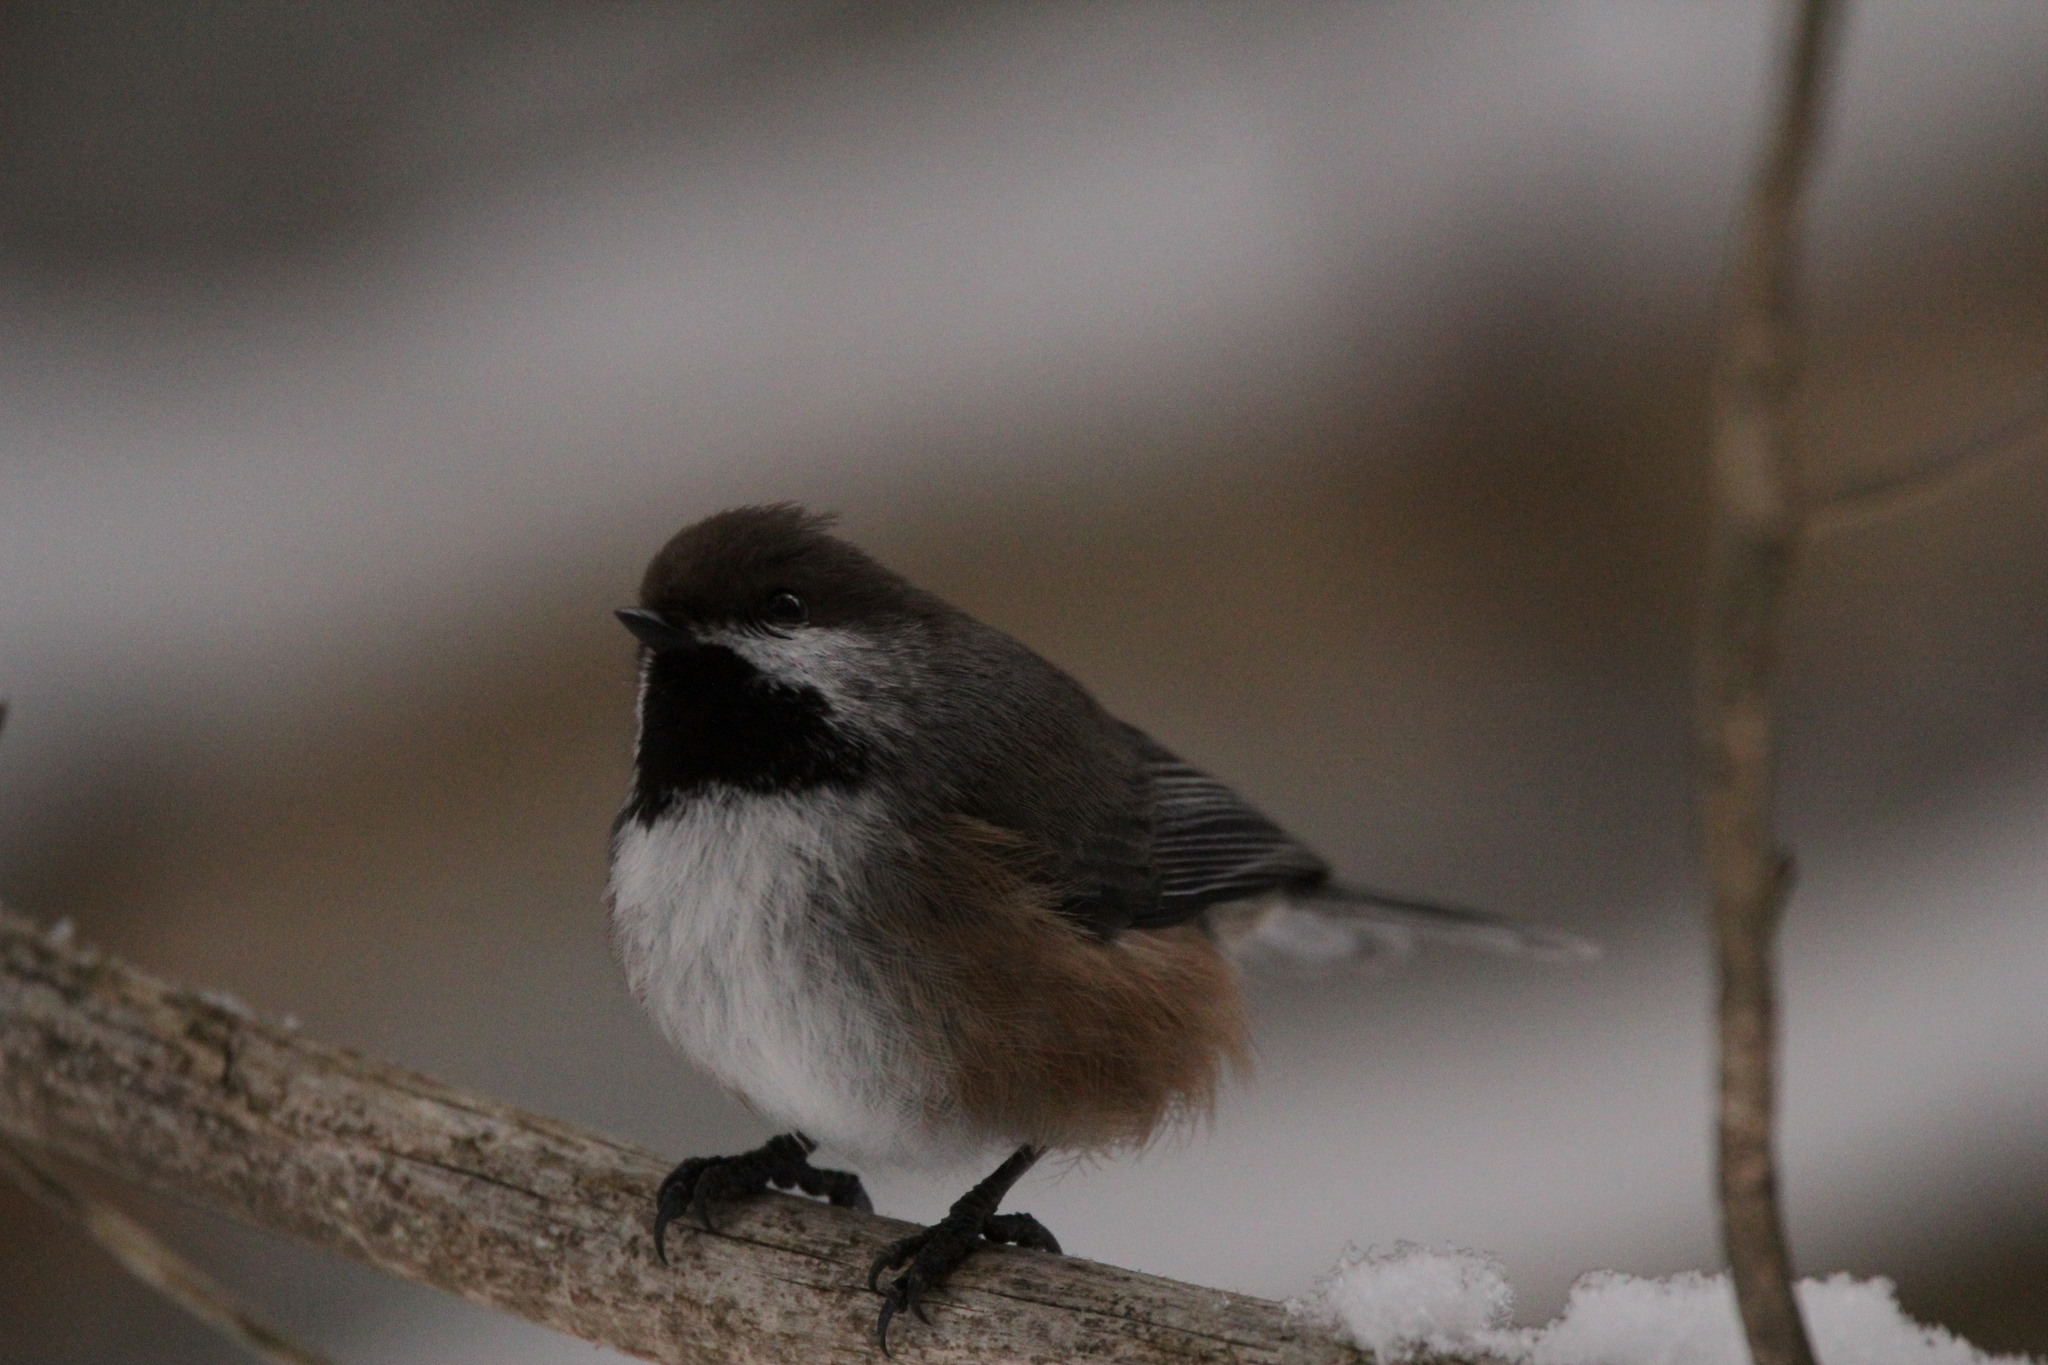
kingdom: Animalia
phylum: Chordata
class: Aves
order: Passeriformes
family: Paridae
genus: Poecile
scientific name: Poecile hudsonicus
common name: Boreal chickadee
